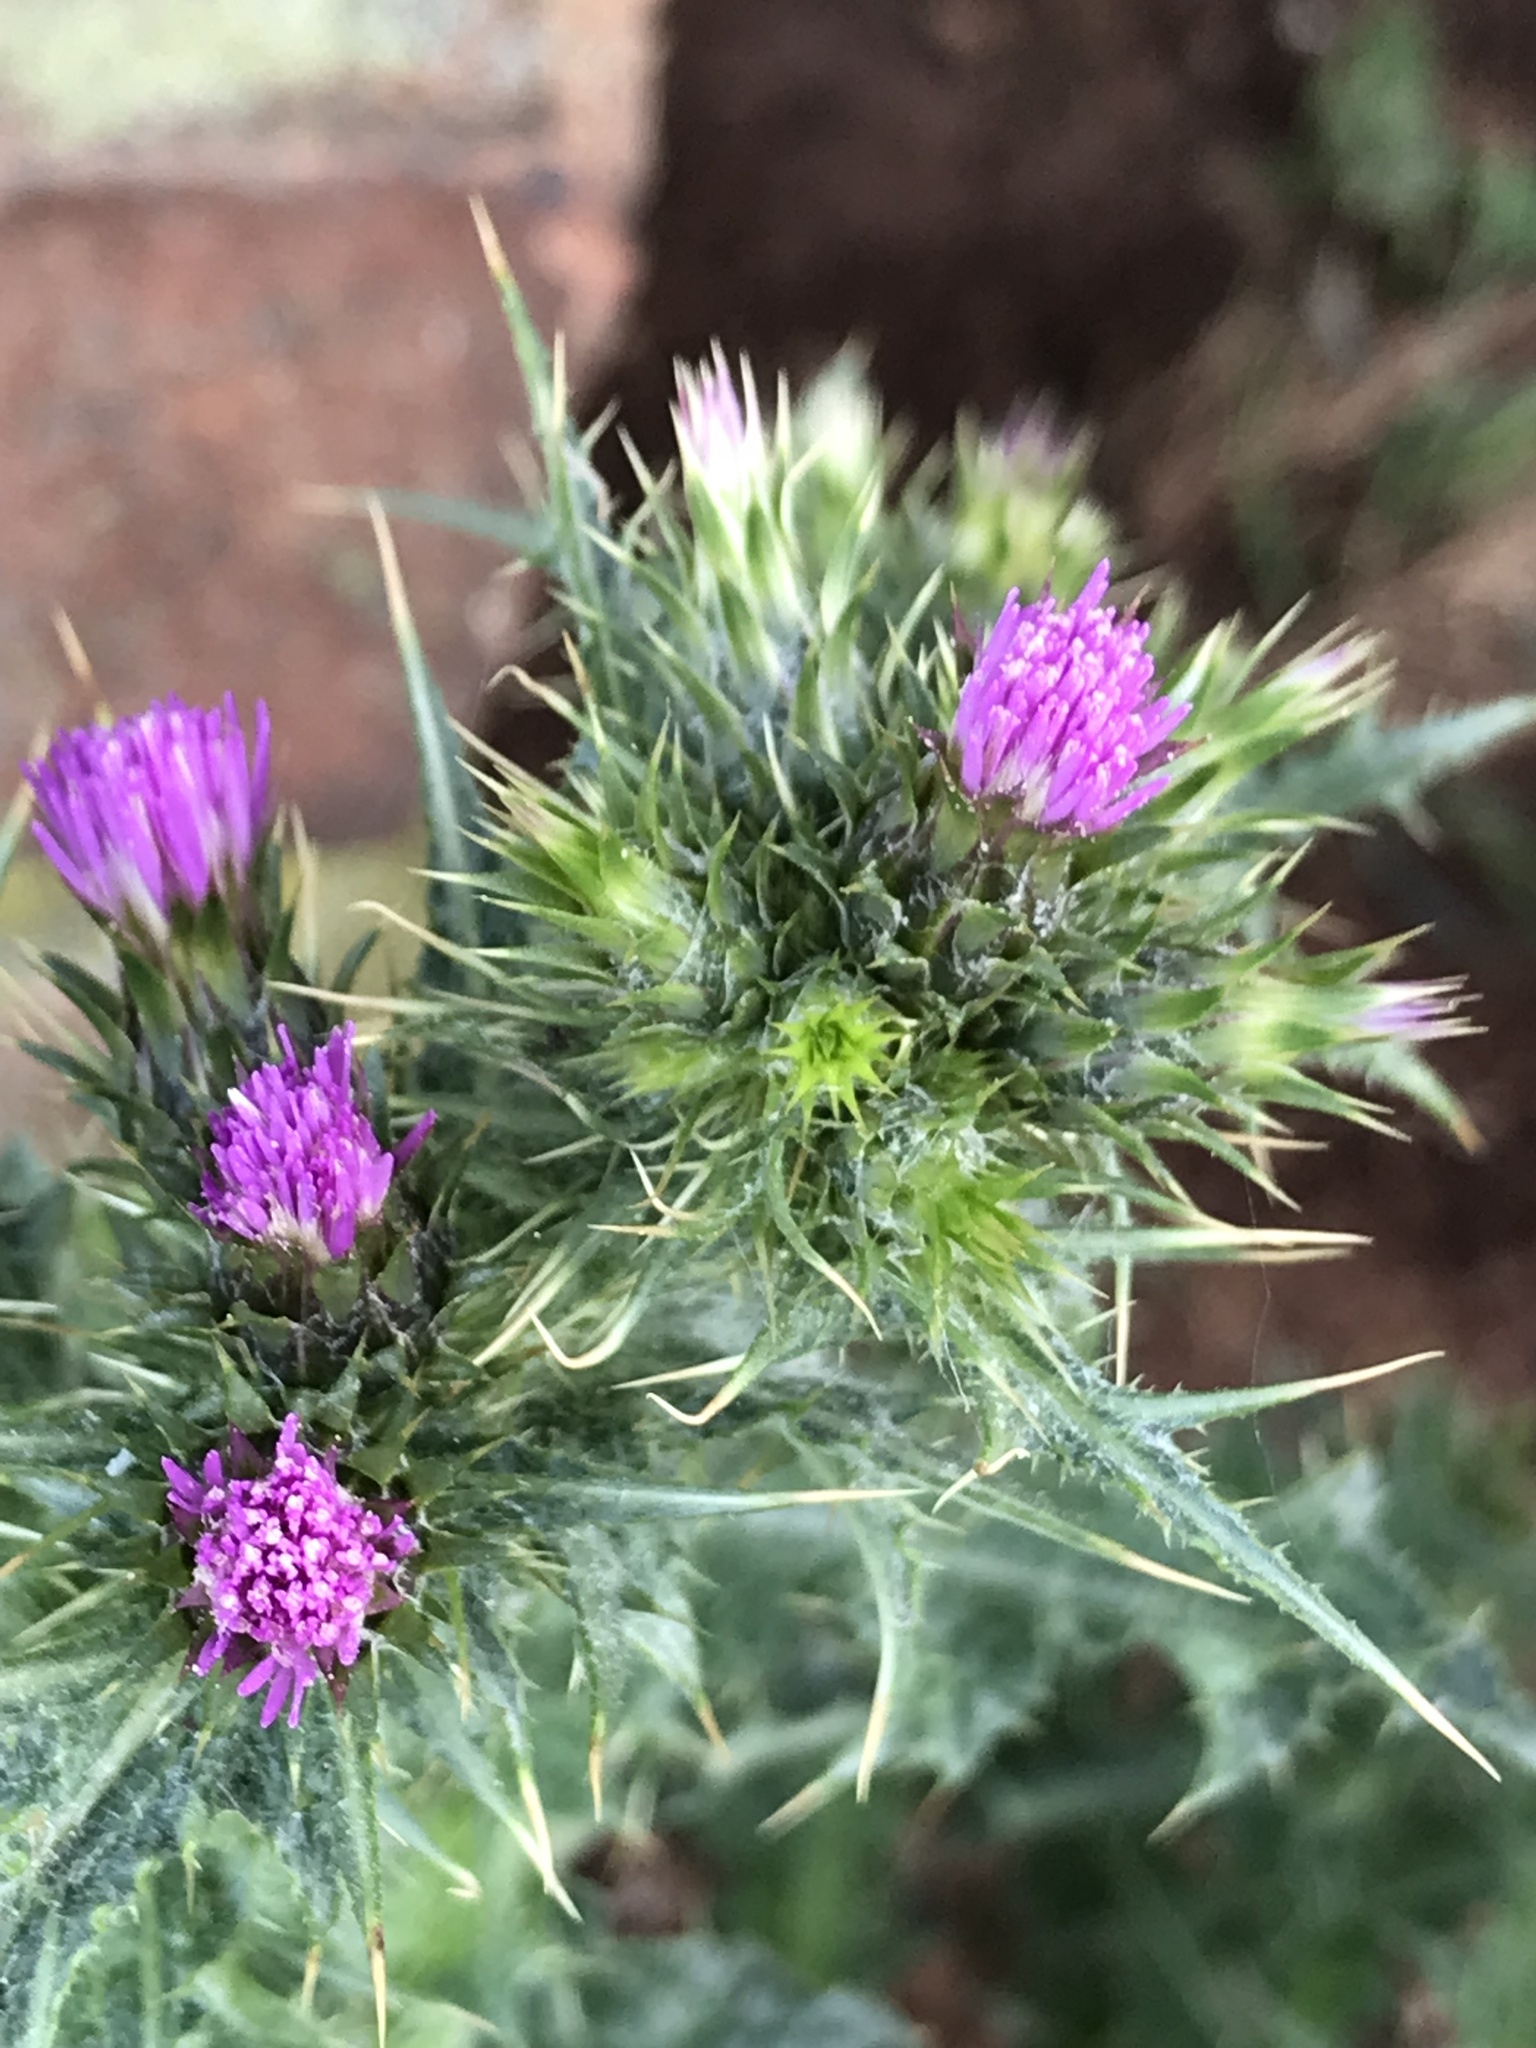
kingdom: Plantae
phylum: Tracheophyta
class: Magnoliopsida
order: Asterales
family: Asteraceae
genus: Carduus
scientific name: Carduus tenuiflorus
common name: Slender thistle
